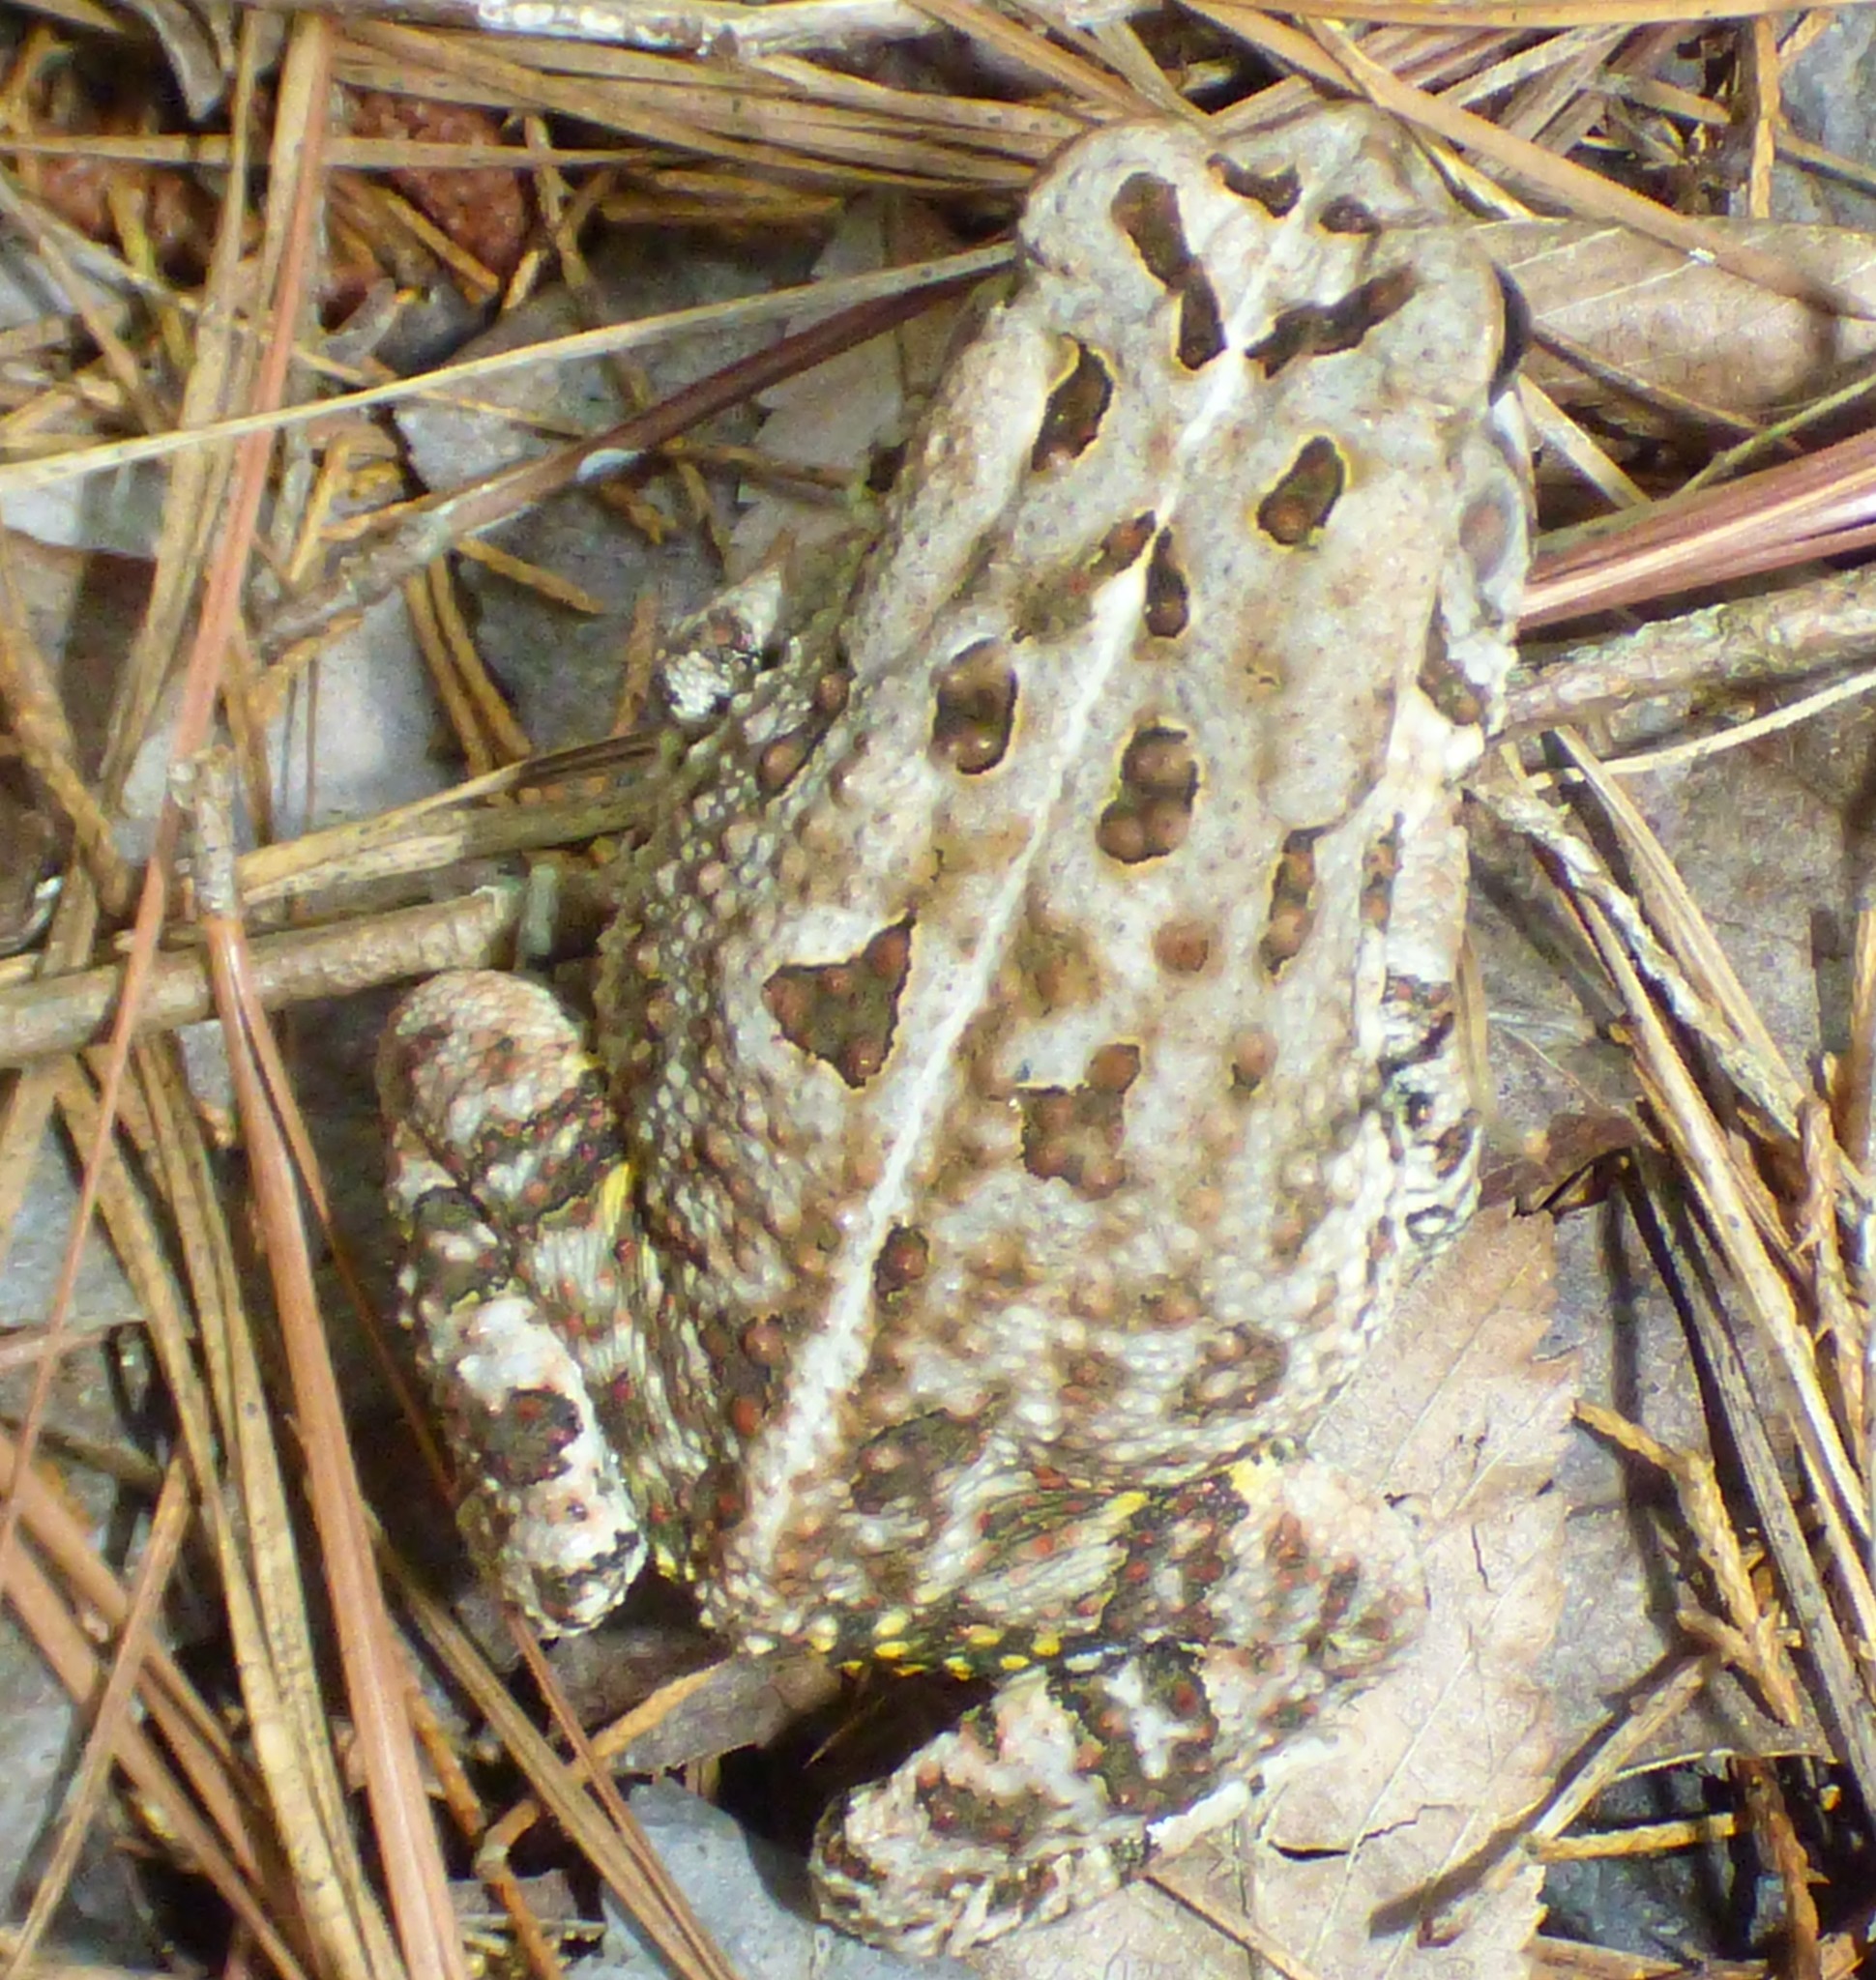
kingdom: Animalia
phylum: Chordata
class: Amphibia
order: Anura
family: Bufonidae
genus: Anaxyrus
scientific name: Anaxyrus fowleri
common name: Fowler's toad
